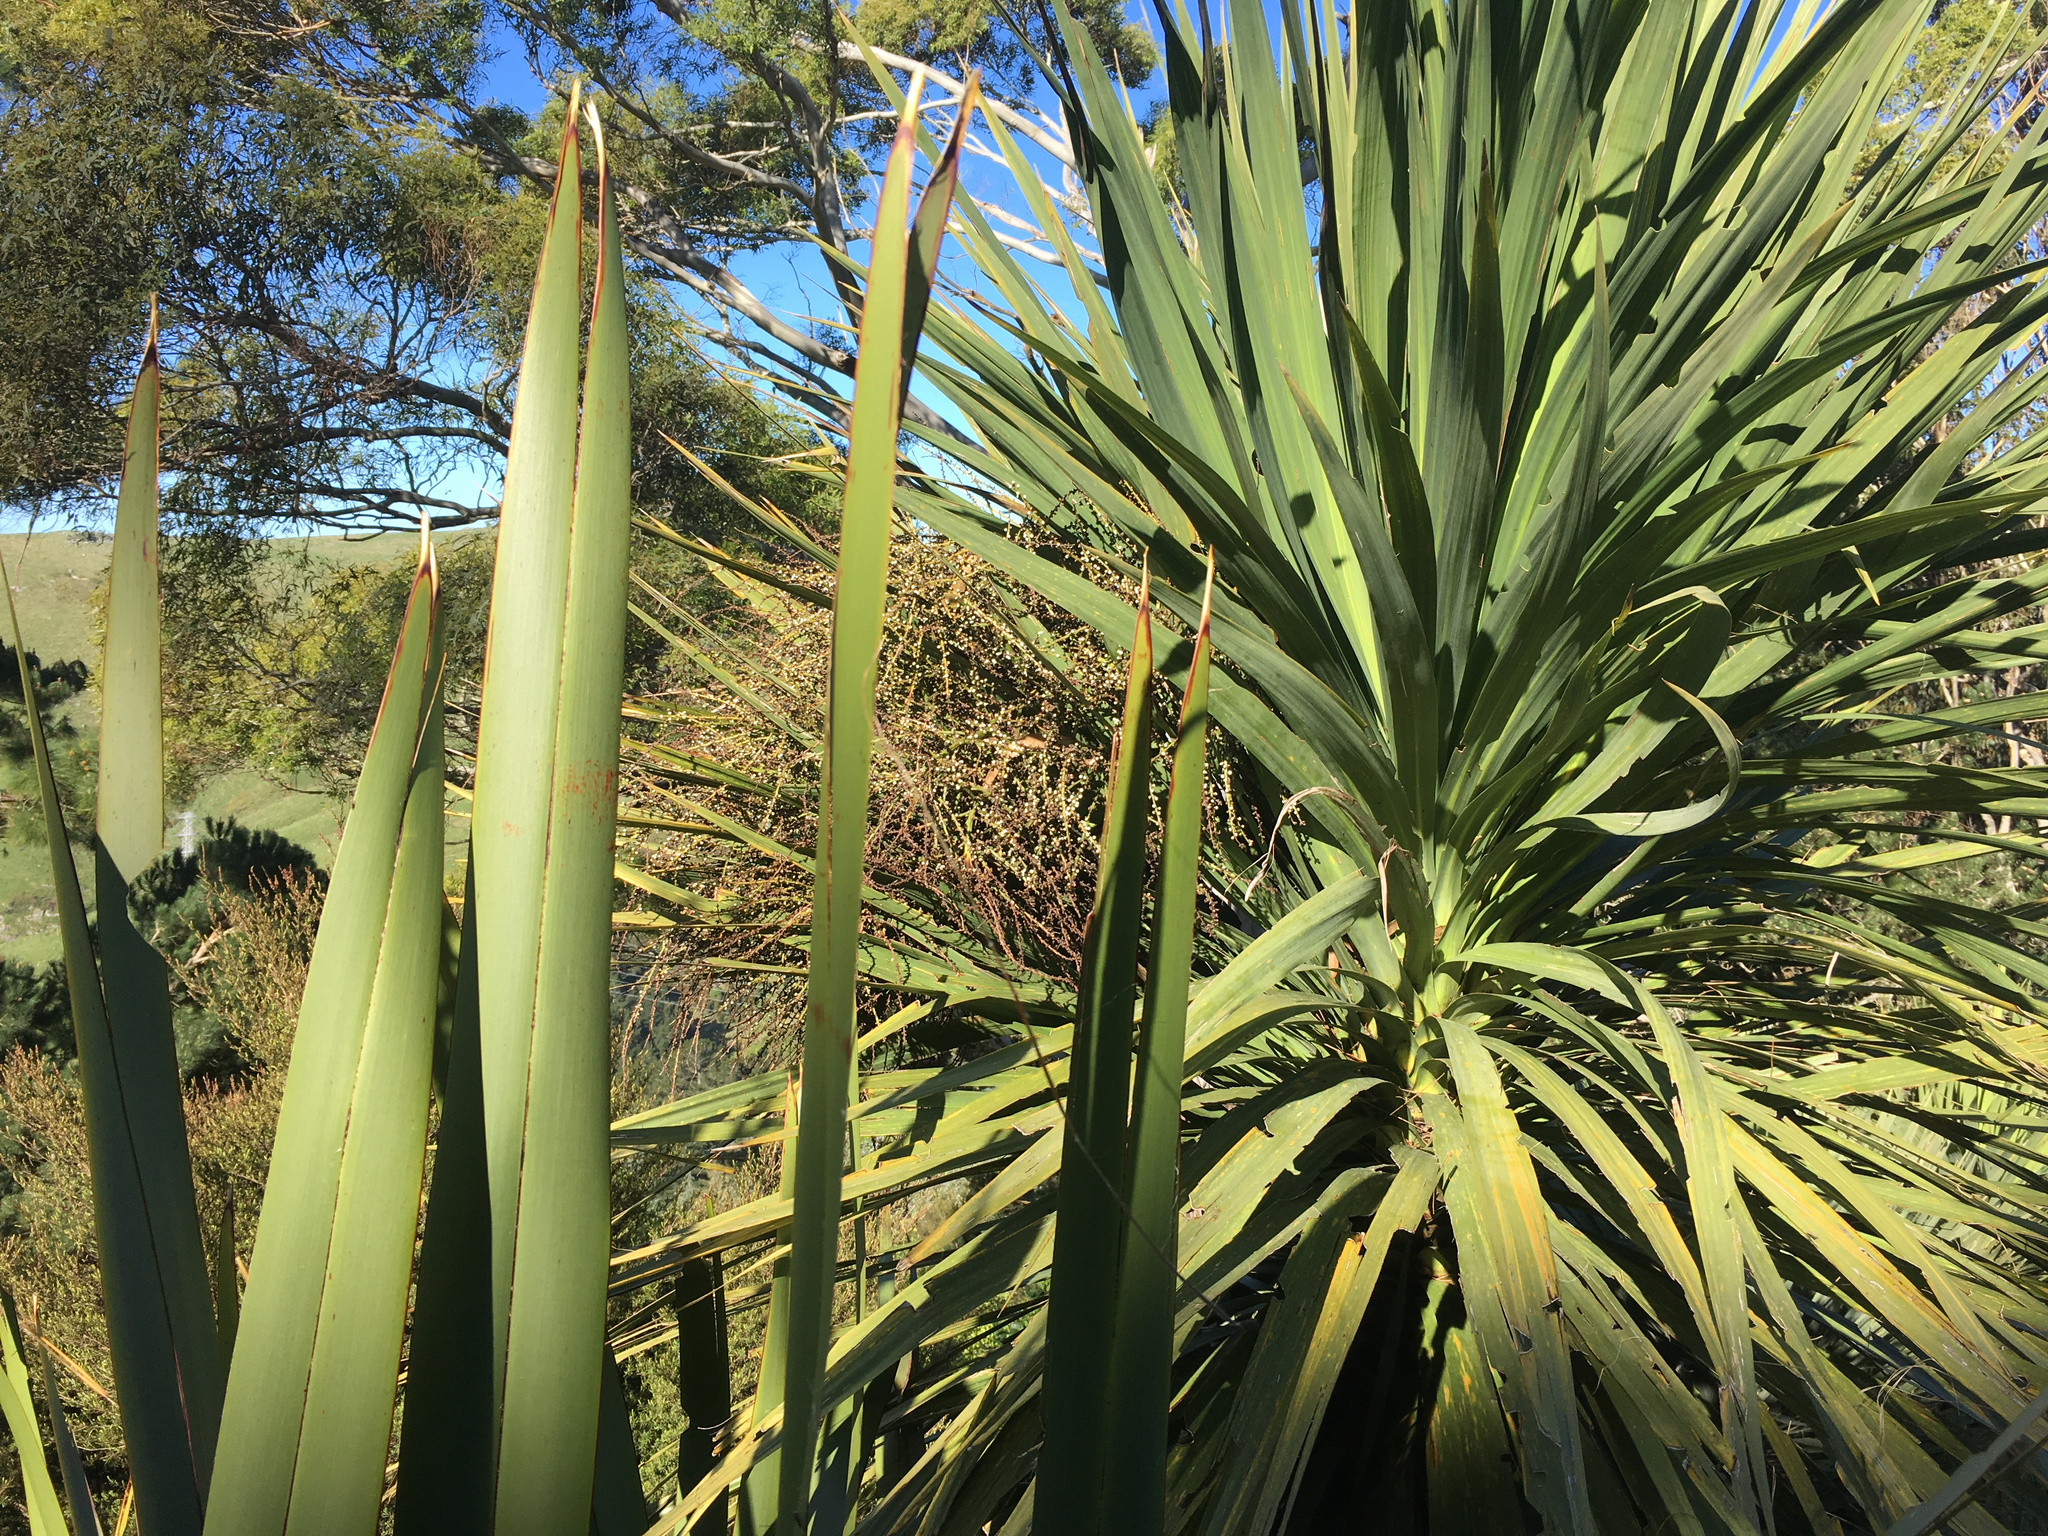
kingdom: Plantae
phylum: Tracheophyta
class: Liliopsida
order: Asparagales
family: Asparagaceae
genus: Cordyline
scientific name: Cordyline australis
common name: Cabbage-palm
